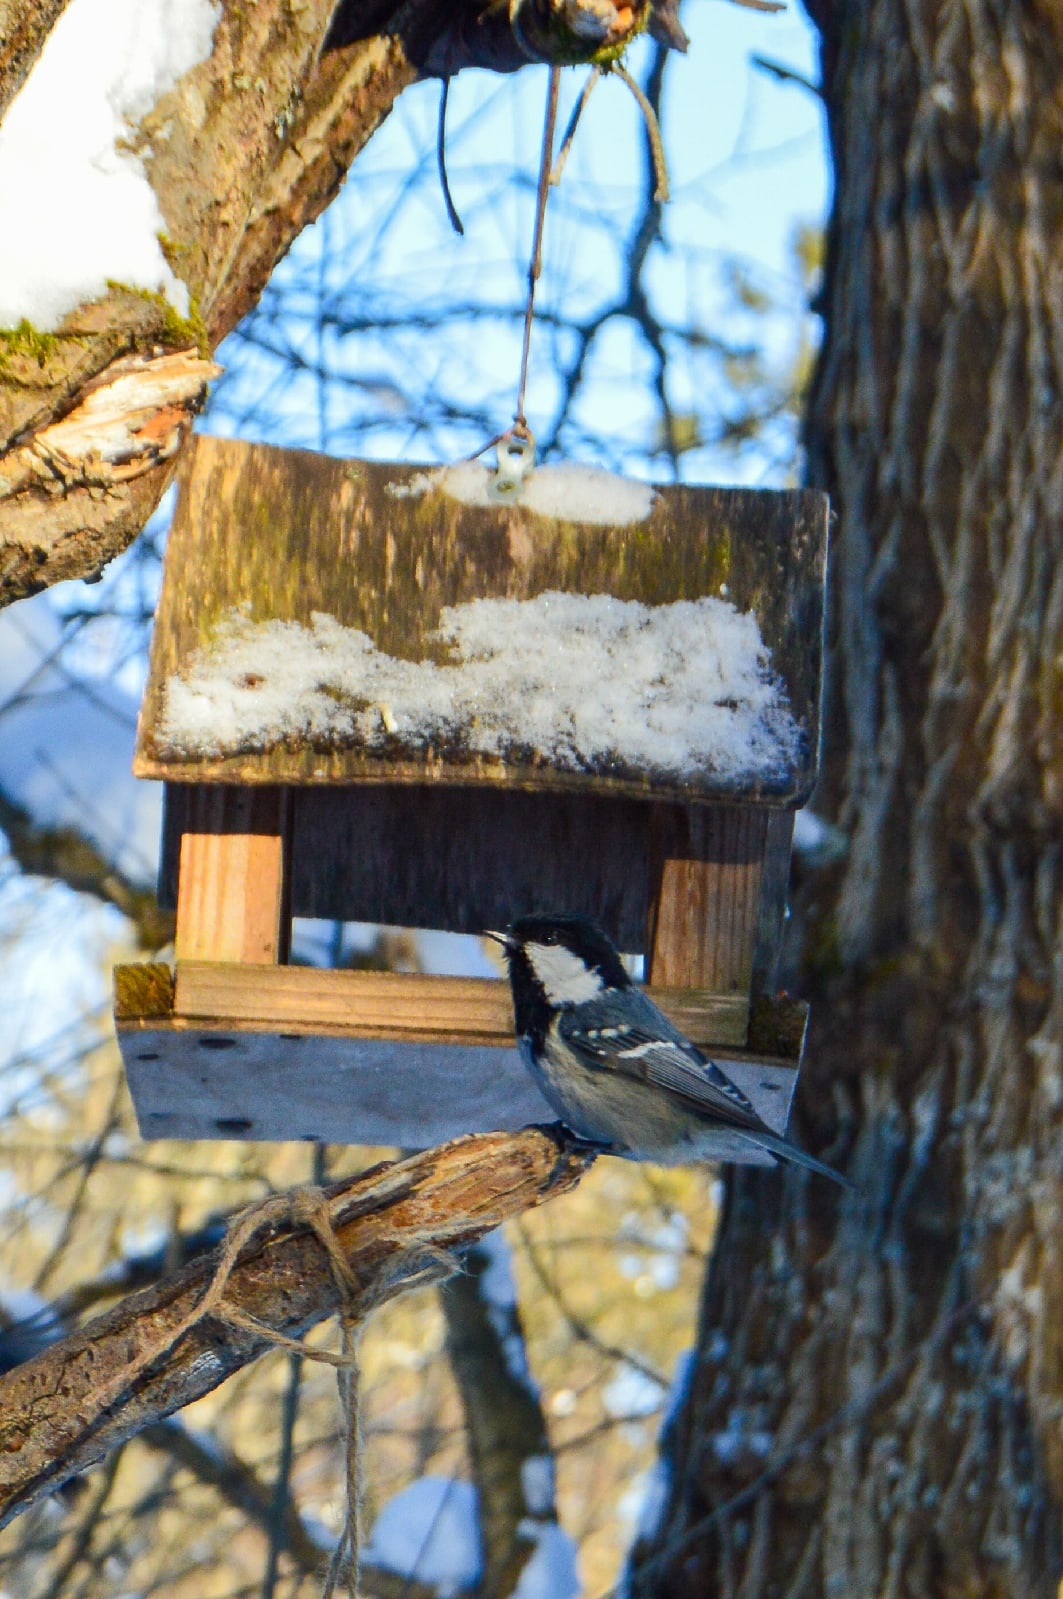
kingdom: Animalia
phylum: Chordata
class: Aves
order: Passeriformes
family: Paridae
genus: Periparus
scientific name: Periparus ater
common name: Coal tit
